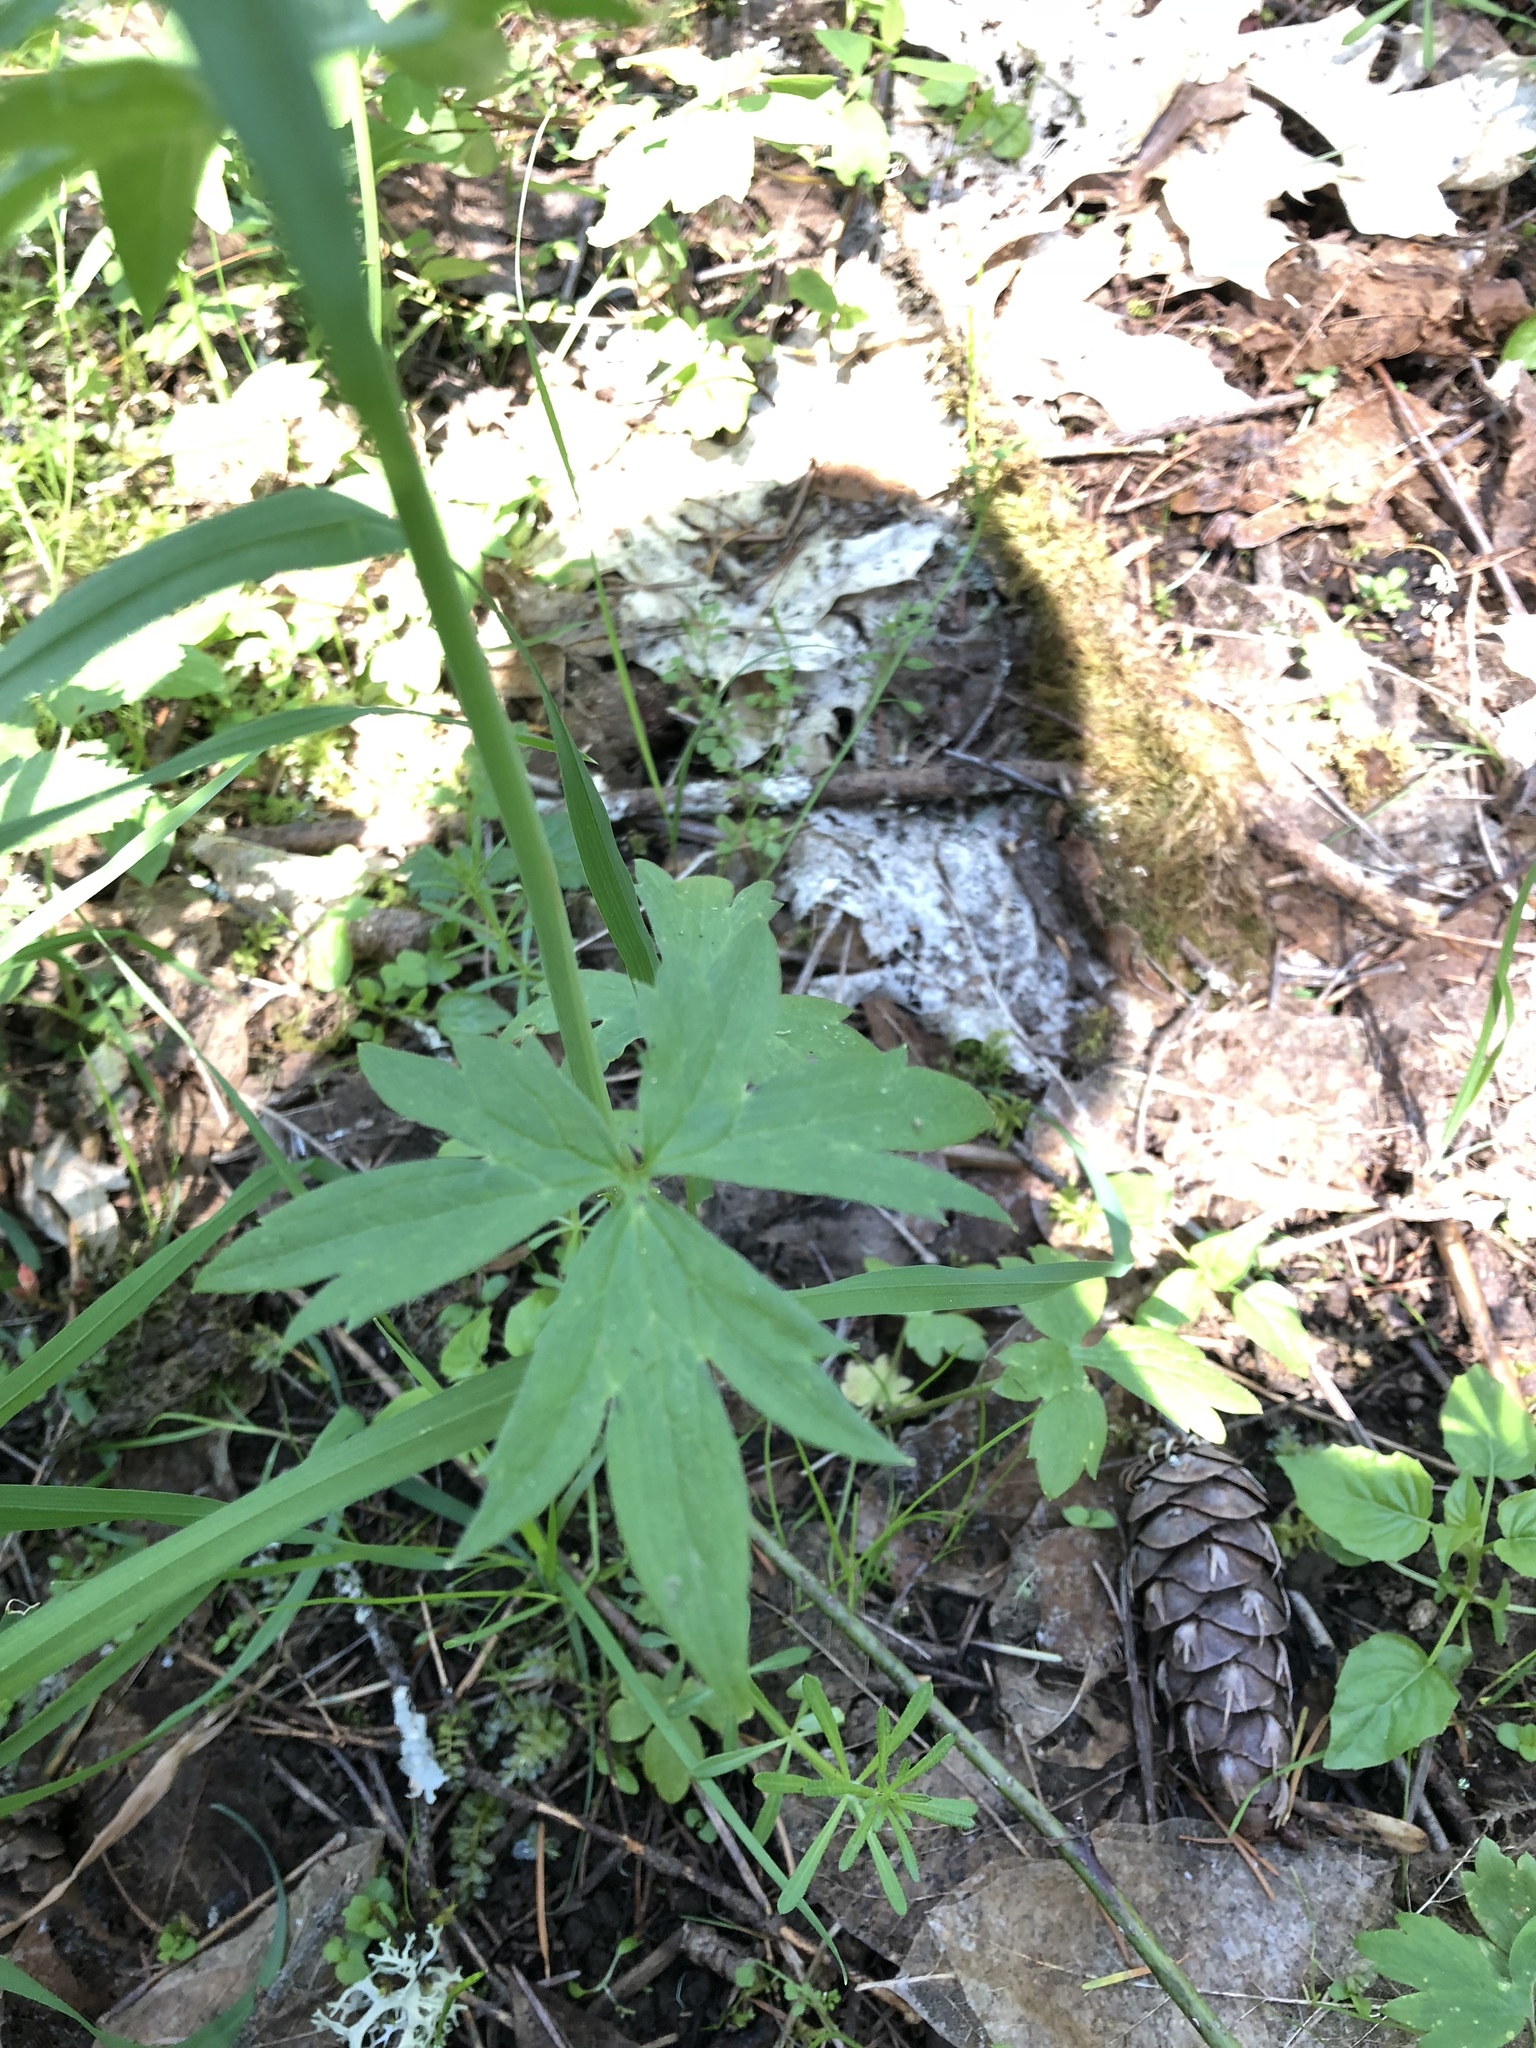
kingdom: Plantae
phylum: Tracheophyta
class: Magnoliopsida
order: Ranunculales
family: Ranunculaceae
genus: Ranunculus
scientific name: Ranunculus uncinatus
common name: Little buttercup
